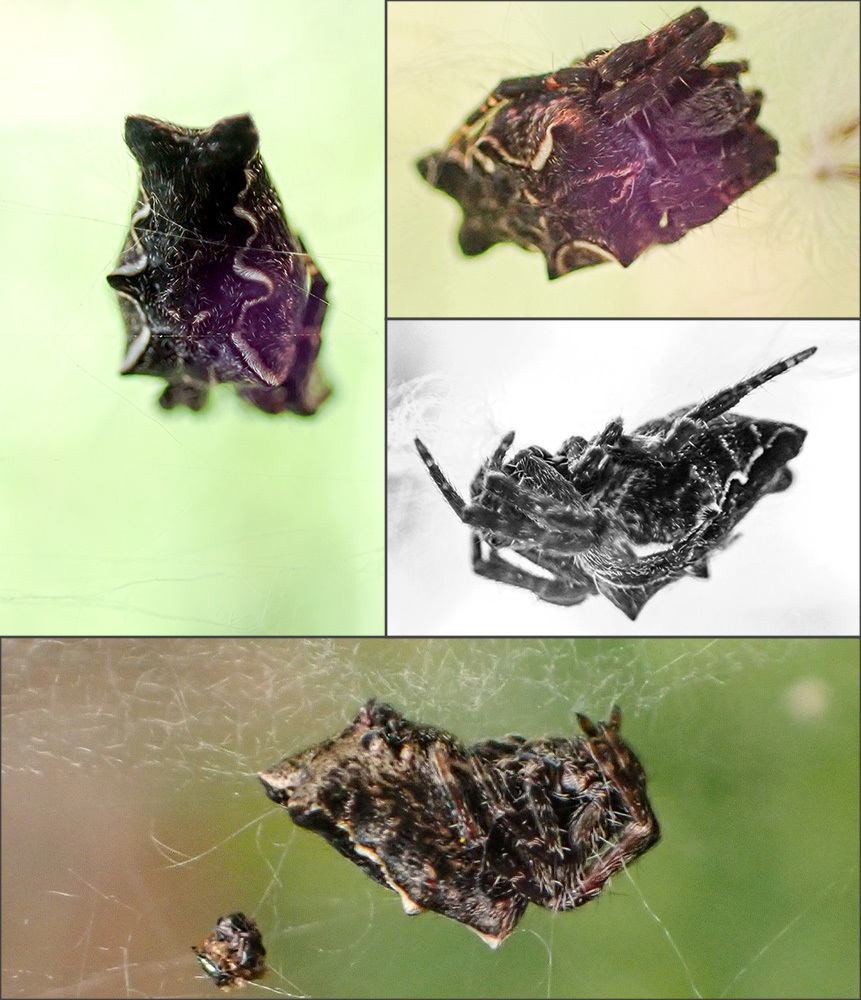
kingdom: Animalia
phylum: Arthropoda
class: Arachnida
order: Araneae
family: Araneidae
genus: Cyrtophora
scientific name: Cyrtophora citricola
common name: Orb weavers
